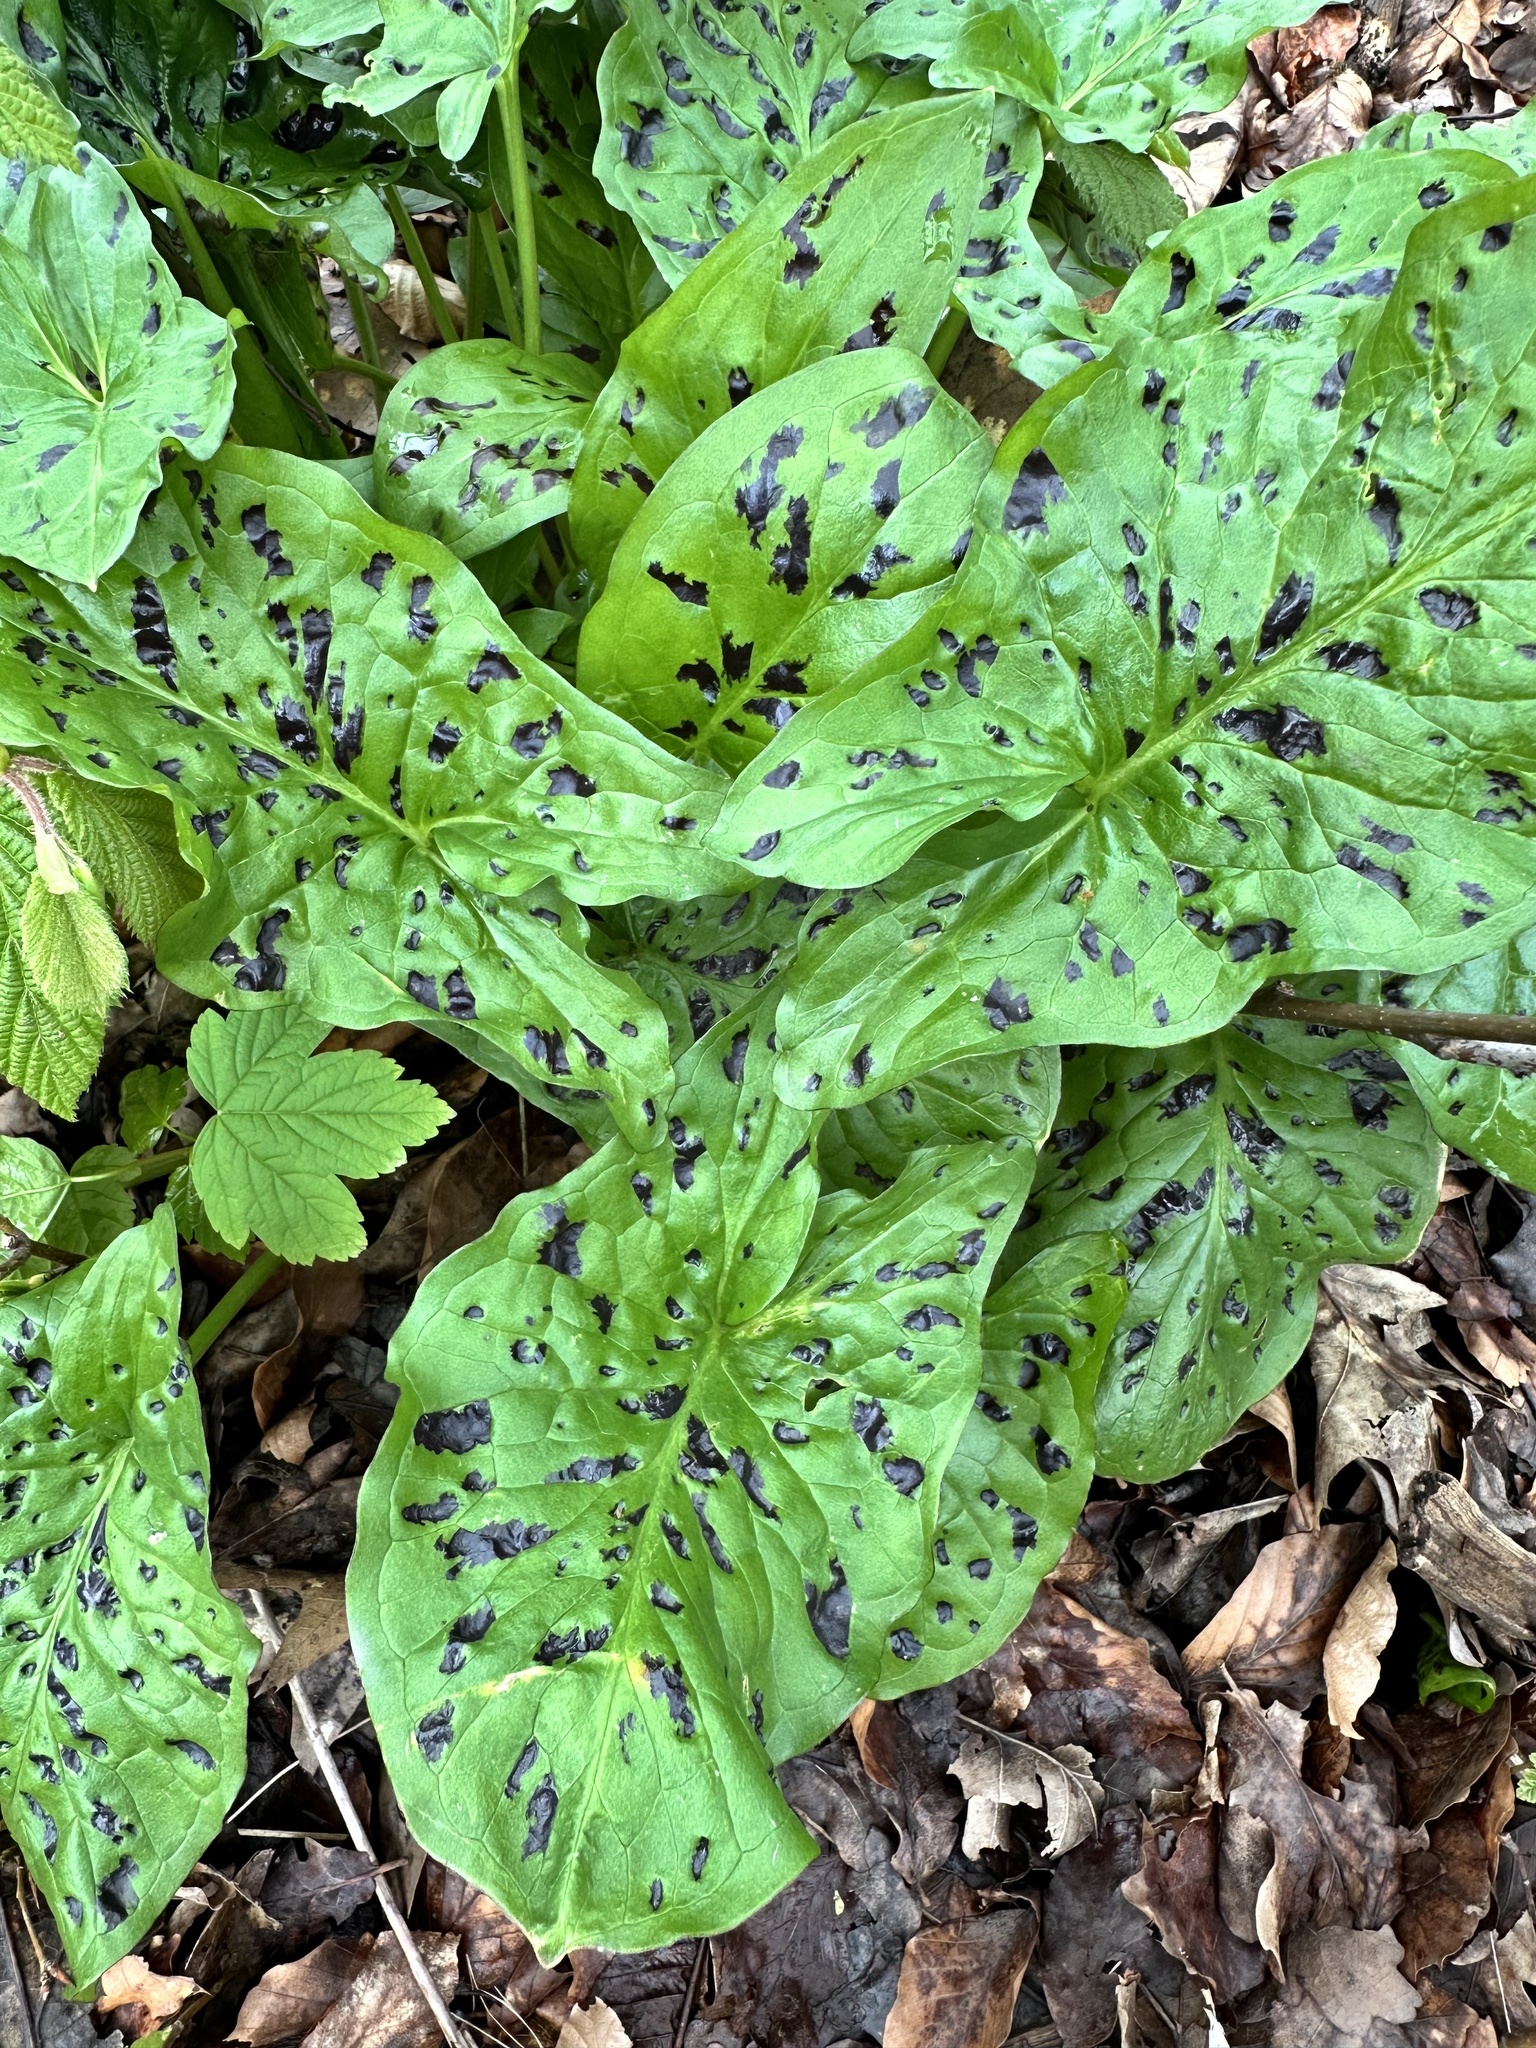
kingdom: Plantae
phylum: Tracheophyta
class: Liliopsida
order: Alismatales
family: Araceae
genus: Arum
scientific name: Arum maculatum
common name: Lords-and-ladies
